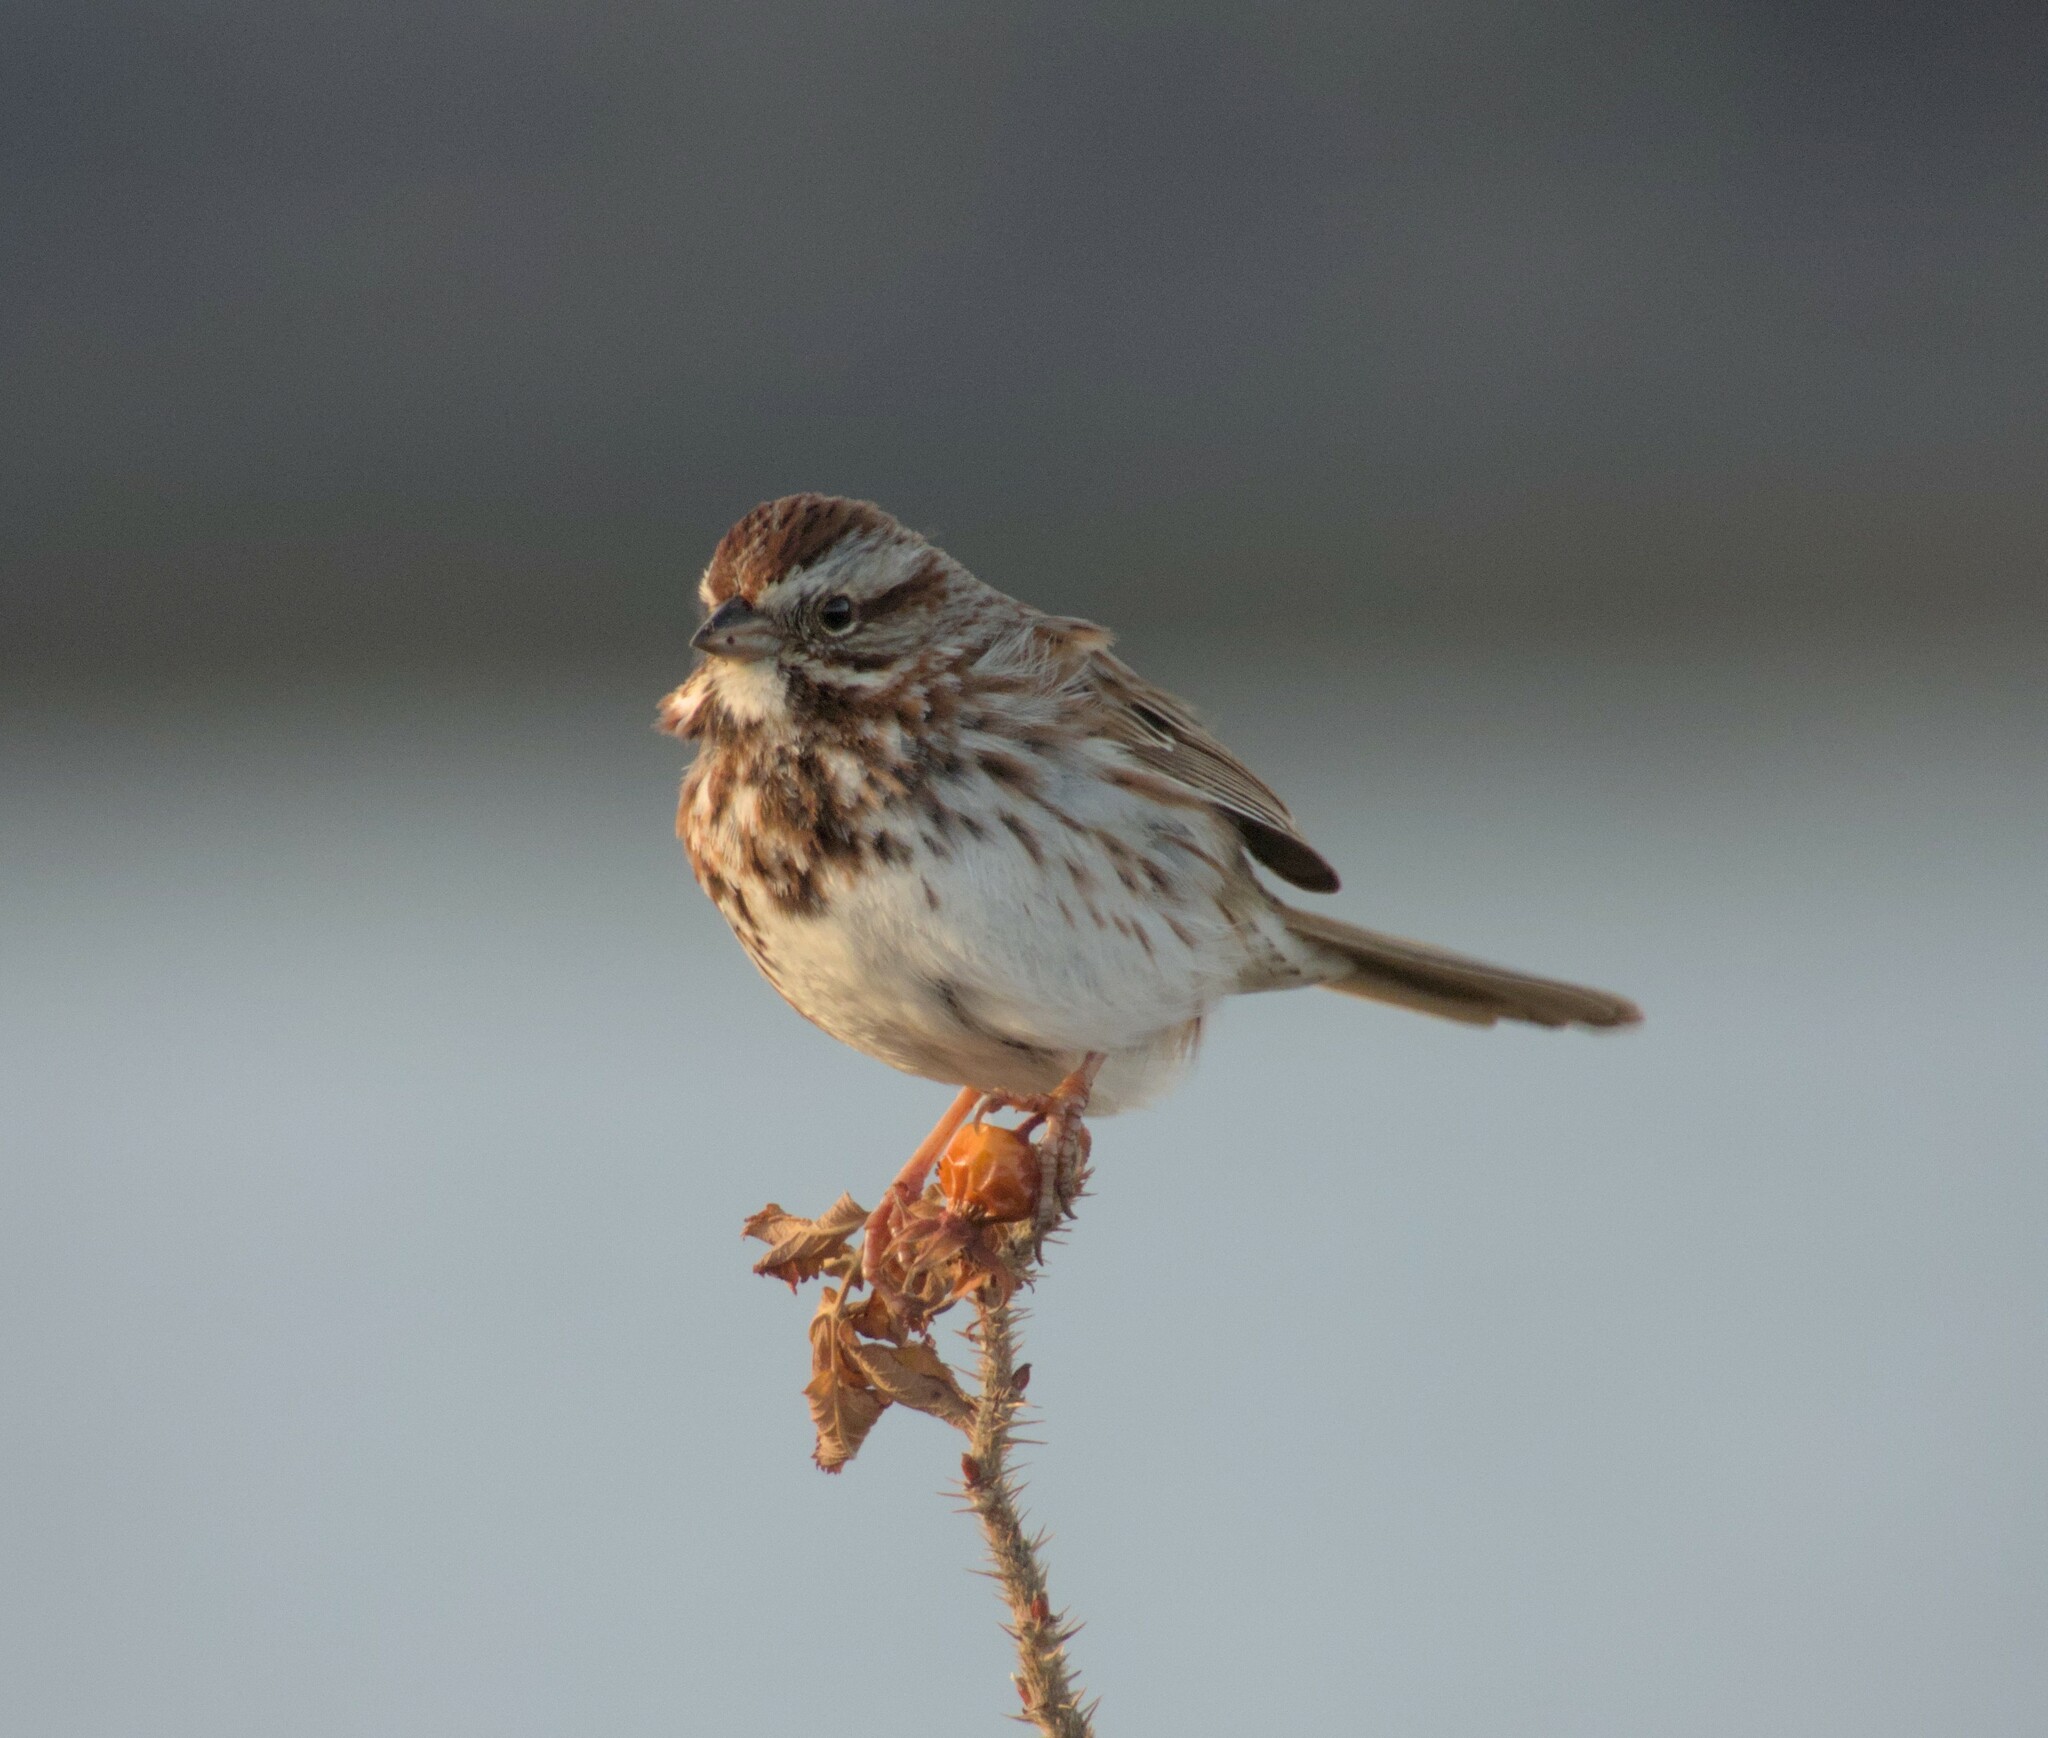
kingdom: Animalia
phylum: Chordata
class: Aves
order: Passeriformes
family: Passerellidae
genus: Melospiza
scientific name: Melospiza melodia
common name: Song sparrow
